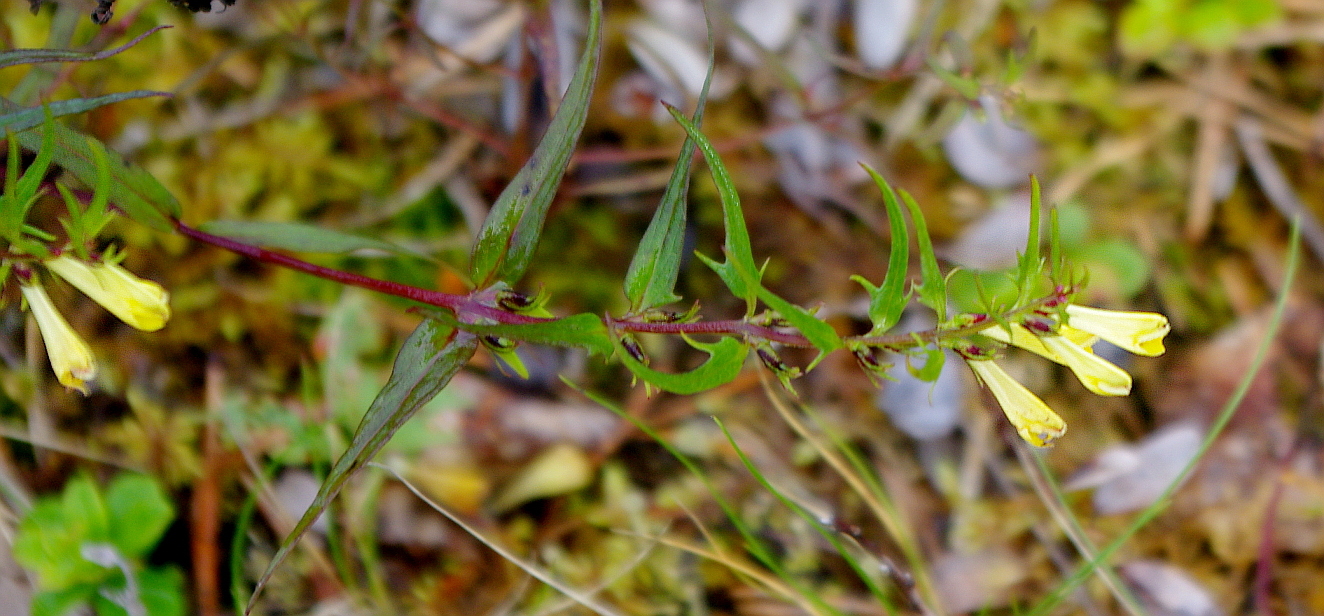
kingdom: Plantae
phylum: Tracheophyta
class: Magnoliopsida
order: Lamiales
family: Orobanchaceae
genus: Melampyrum
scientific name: Melampyrum pratense
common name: Common cow-wheat
